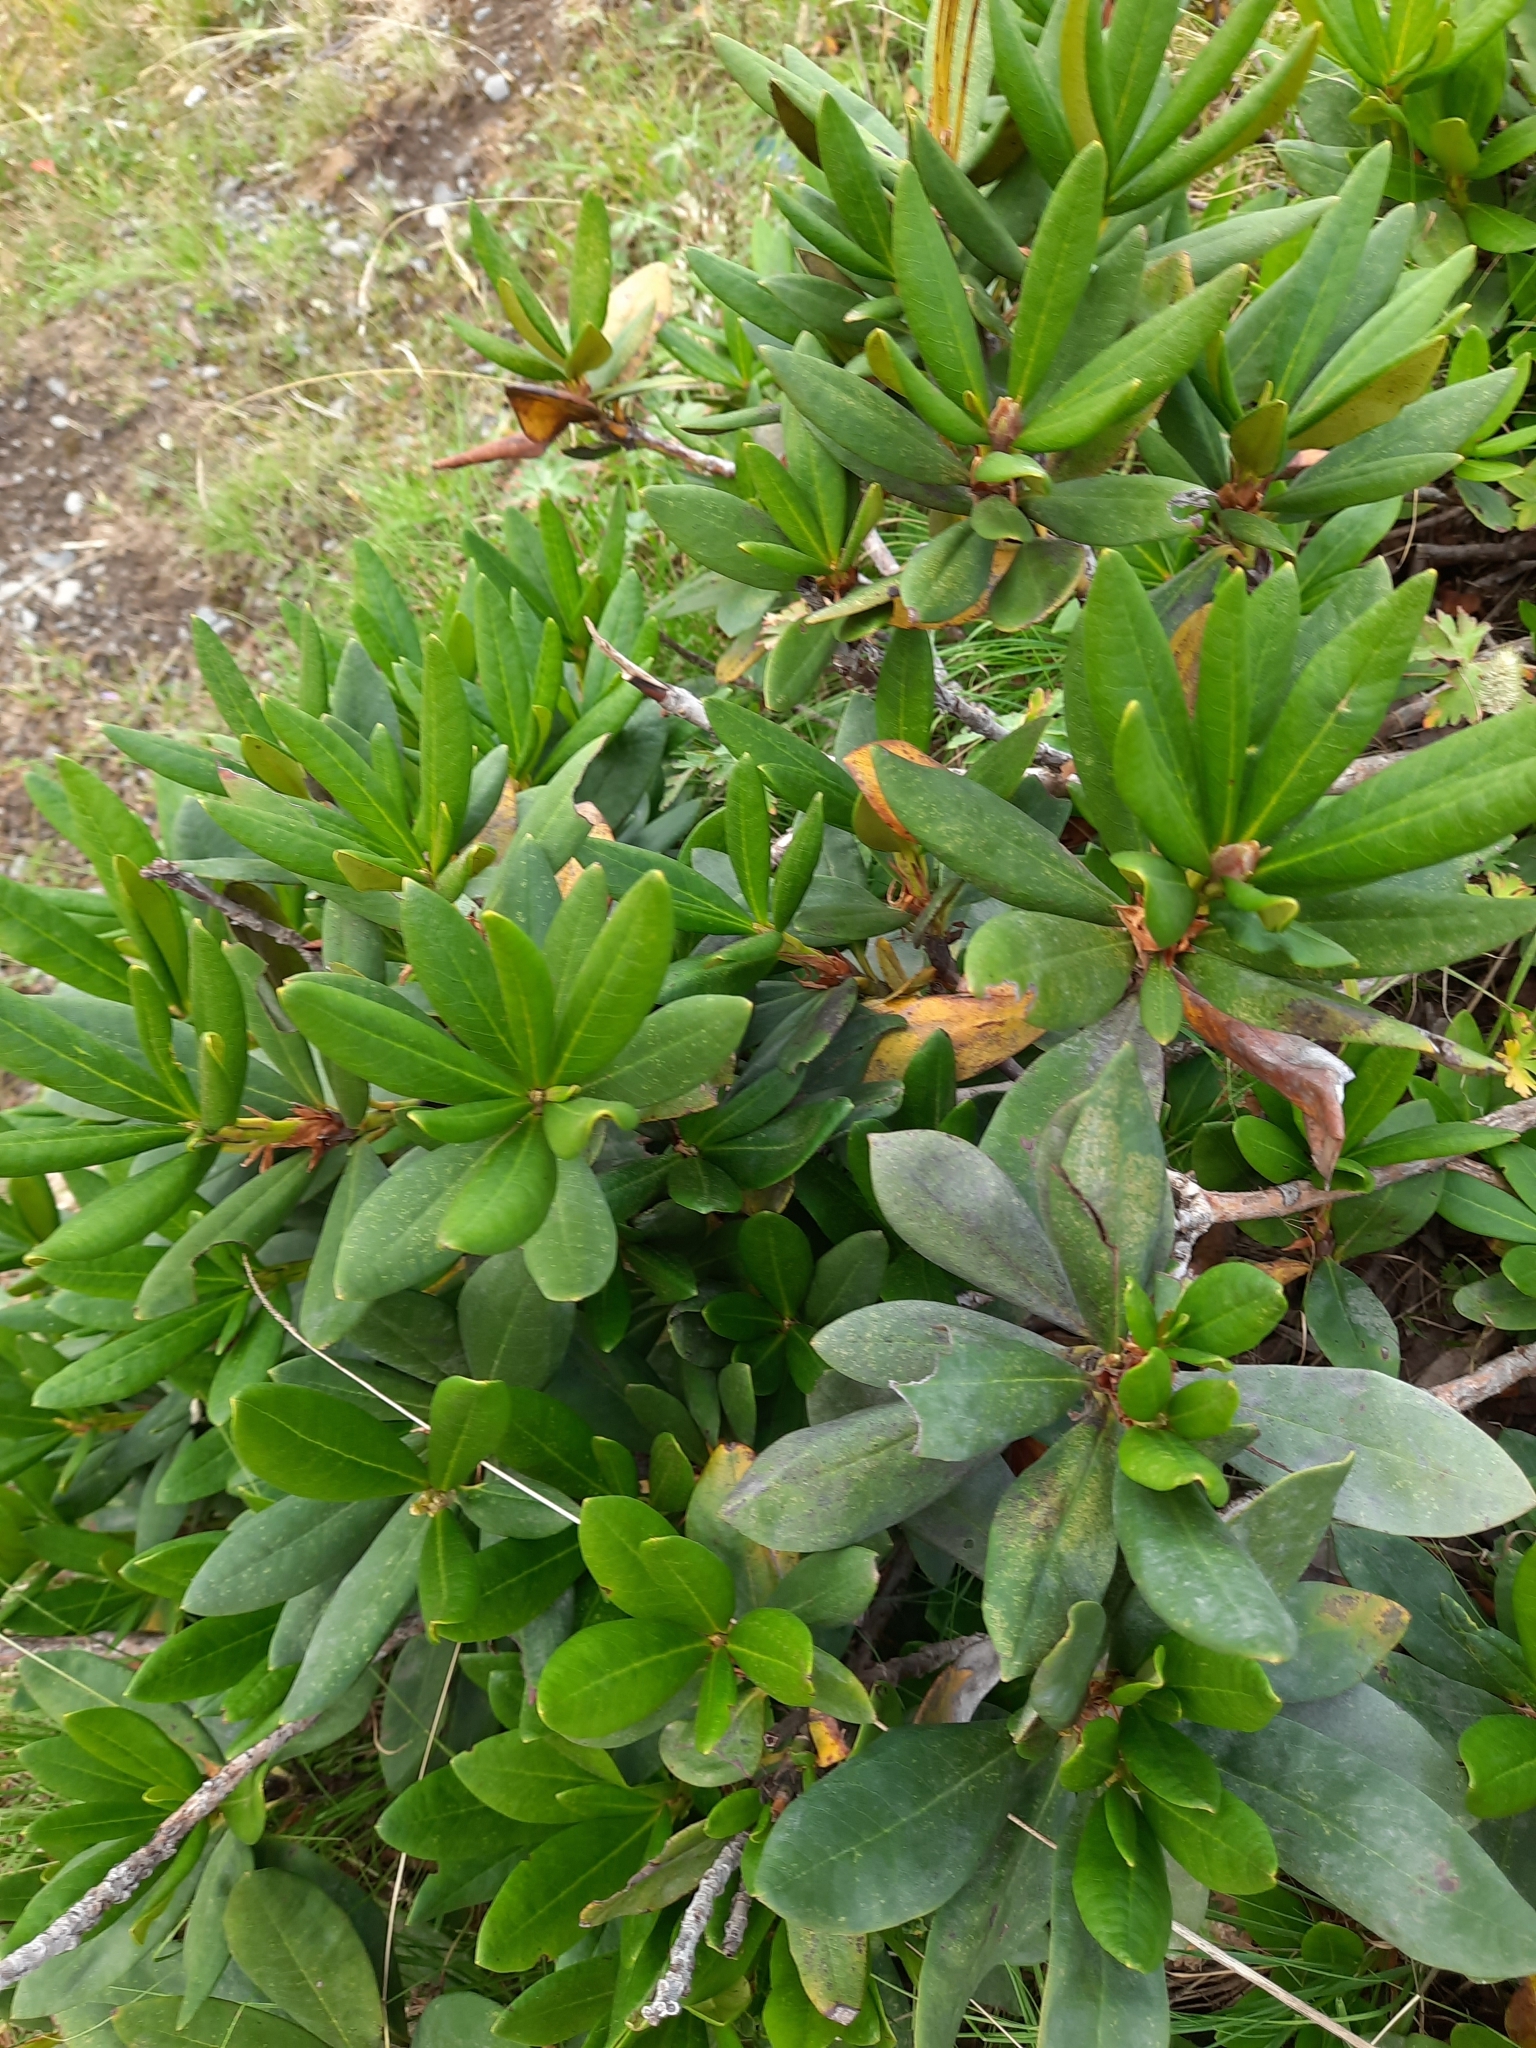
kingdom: Plantae
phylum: Tracheophyta
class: Magnoliopsida
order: Ericales
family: Ericaceae
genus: Rhododendron
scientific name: Rhododendron caucasicum
